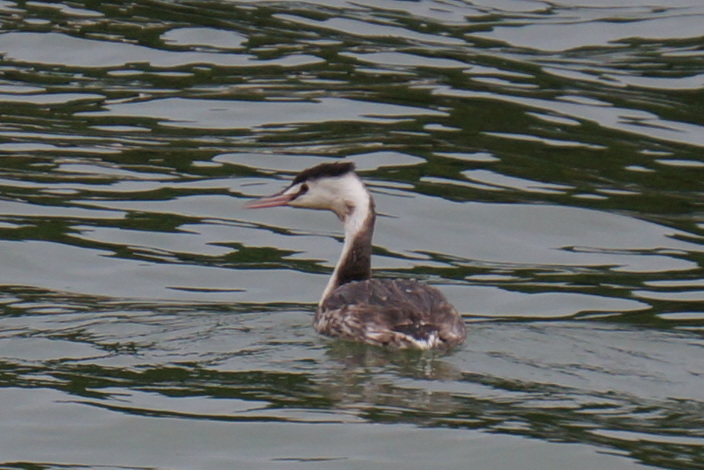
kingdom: Animalia
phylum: Chordata
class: Aves
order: Podicipediformes
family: Podicipedidae
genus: Podiceps
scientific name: Podiceps cristatus
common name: Great crested grebe
